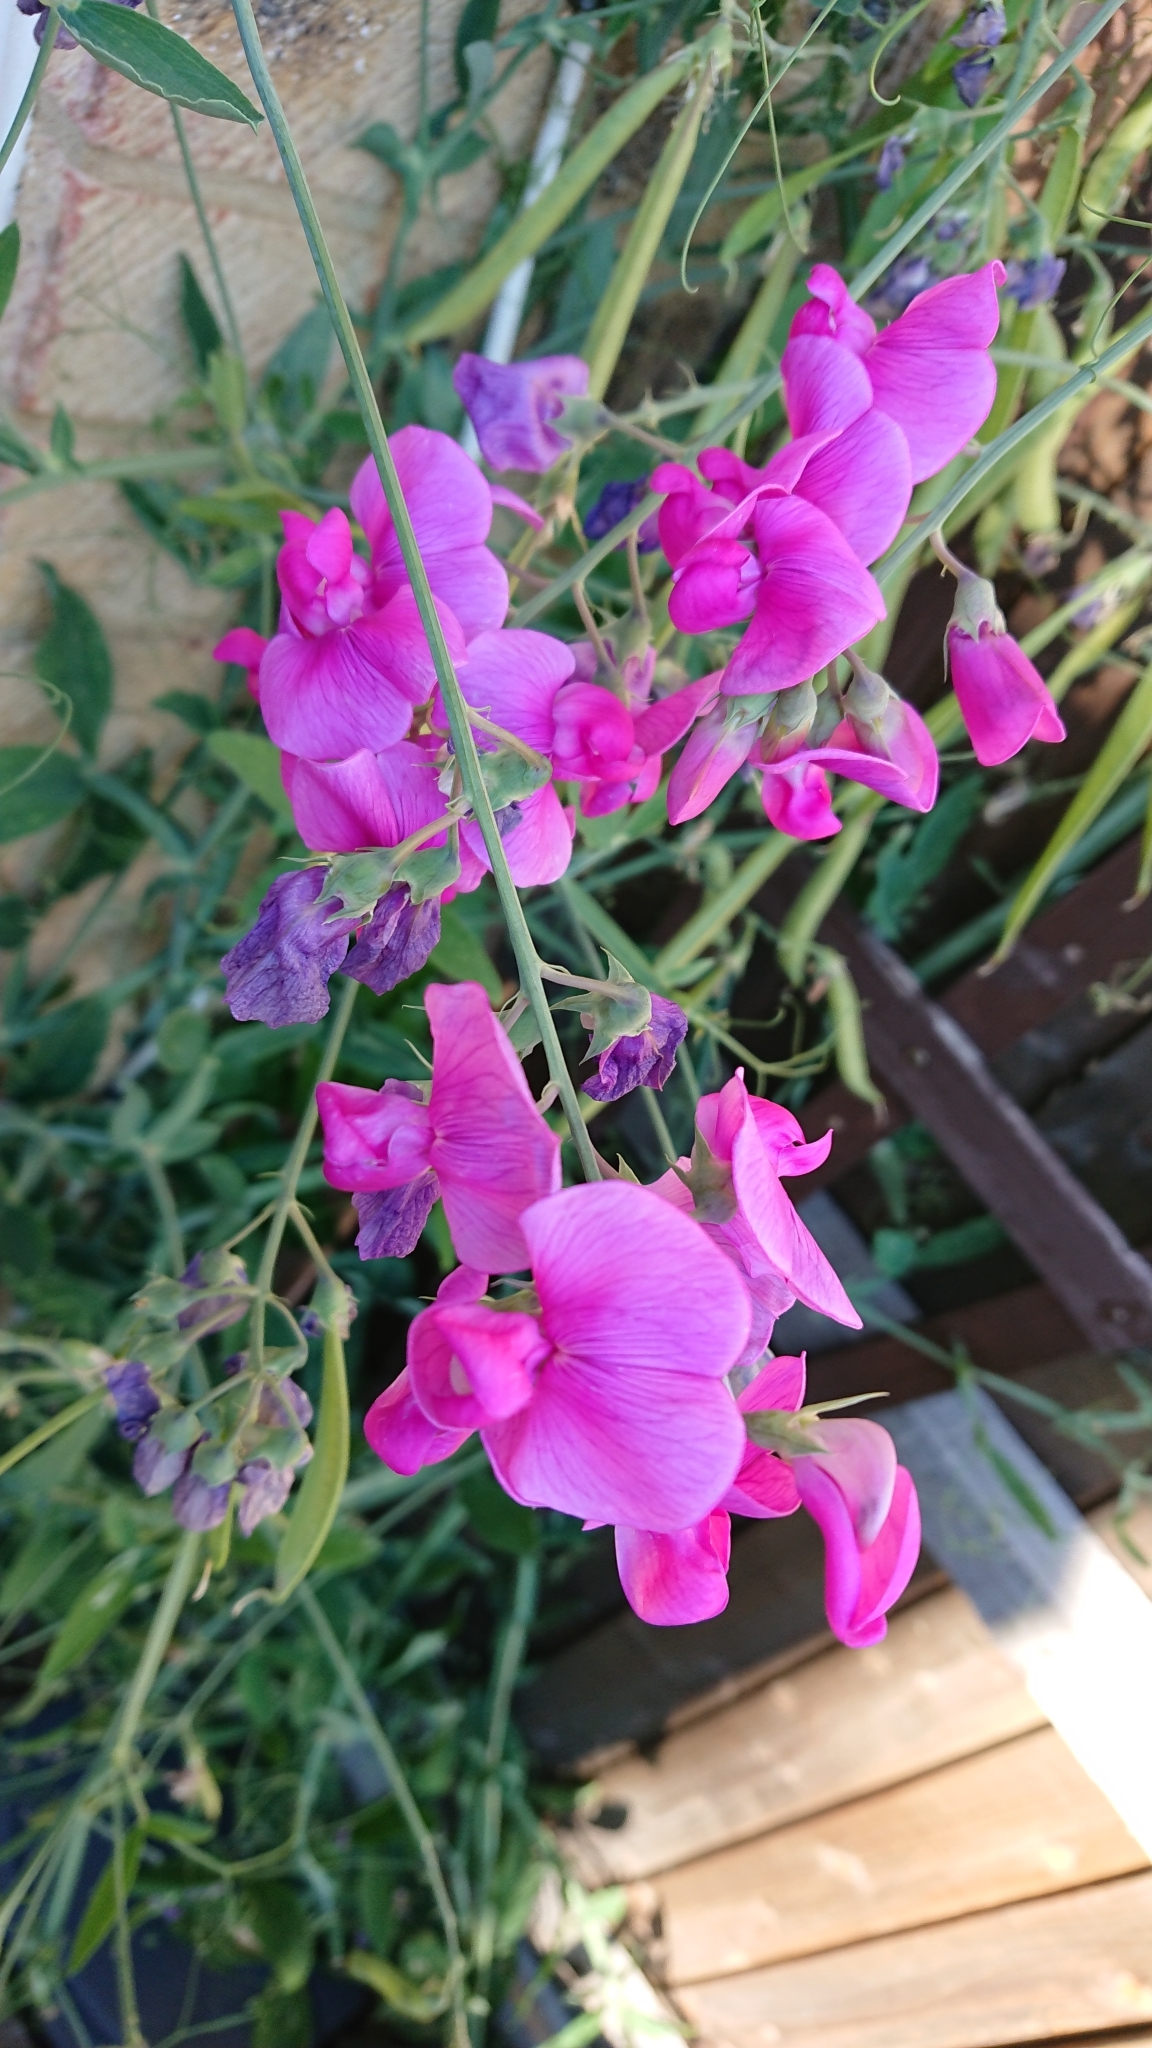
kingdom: Plantae
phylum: Tracheophyta
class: Magnoliopsida
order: Fabales
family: Fabaceae
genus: Lathyrus
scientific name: Lathyrus latifolius
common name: Perennial pea
